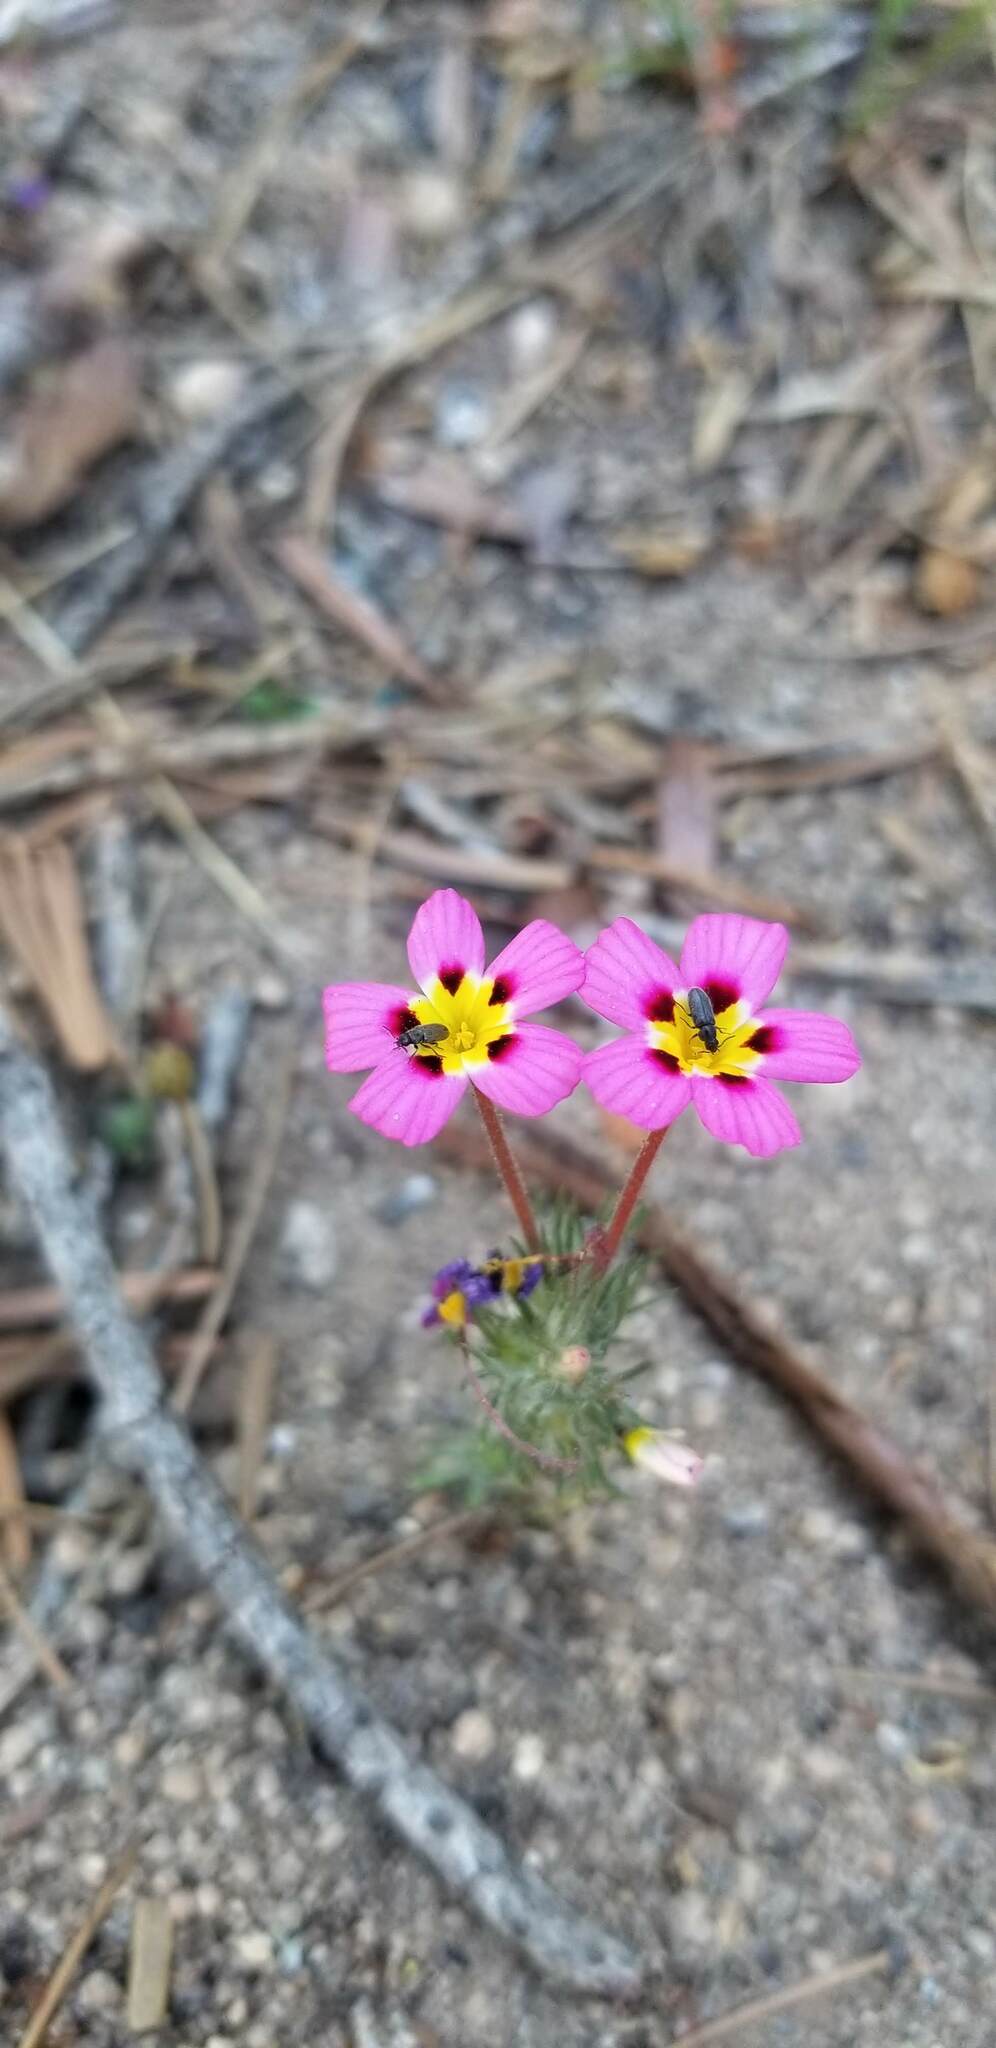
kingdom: Plantae
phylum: Tracheophyta
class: Magnoliopsida
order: Ericales
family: Polemoniaceae
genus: Leptosiphon
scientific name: Leptosiphon ciliatus
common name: Whiskerbrush
